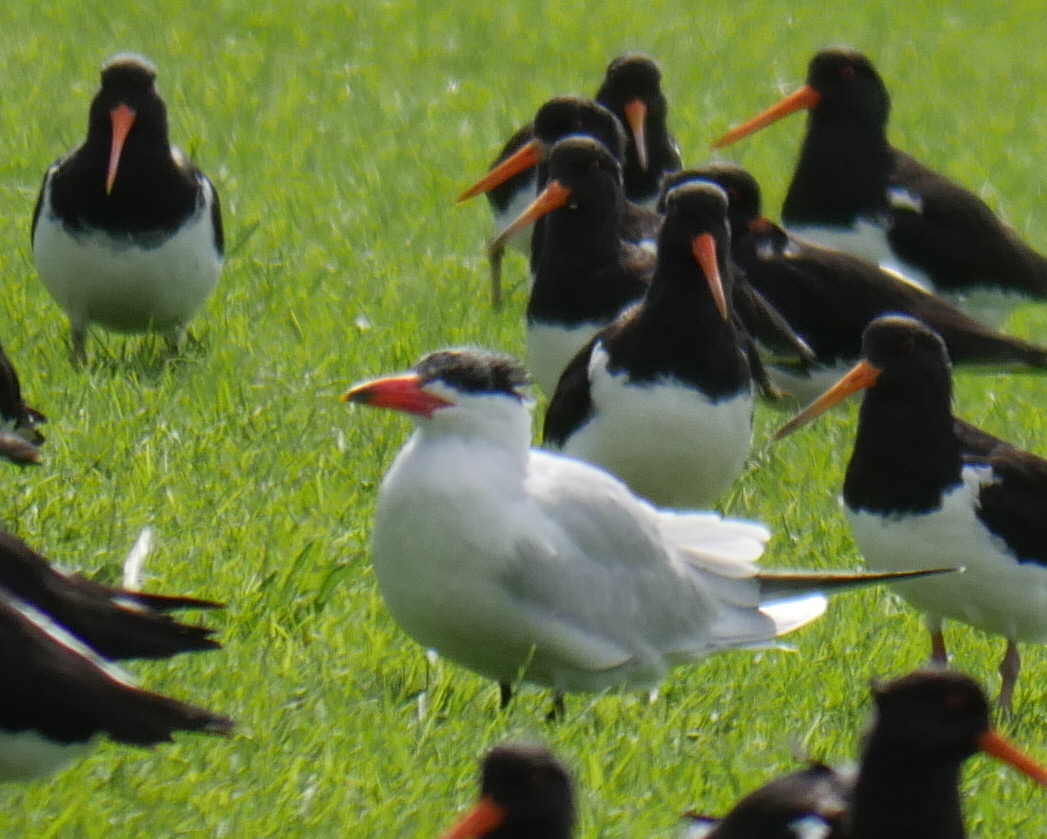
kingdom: Animalia
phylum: Chordata
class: Aves
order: Charadriiformes
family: Laridae
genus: Hydroprogne
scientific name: Hydroprogne caspia
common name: Caspian tern
